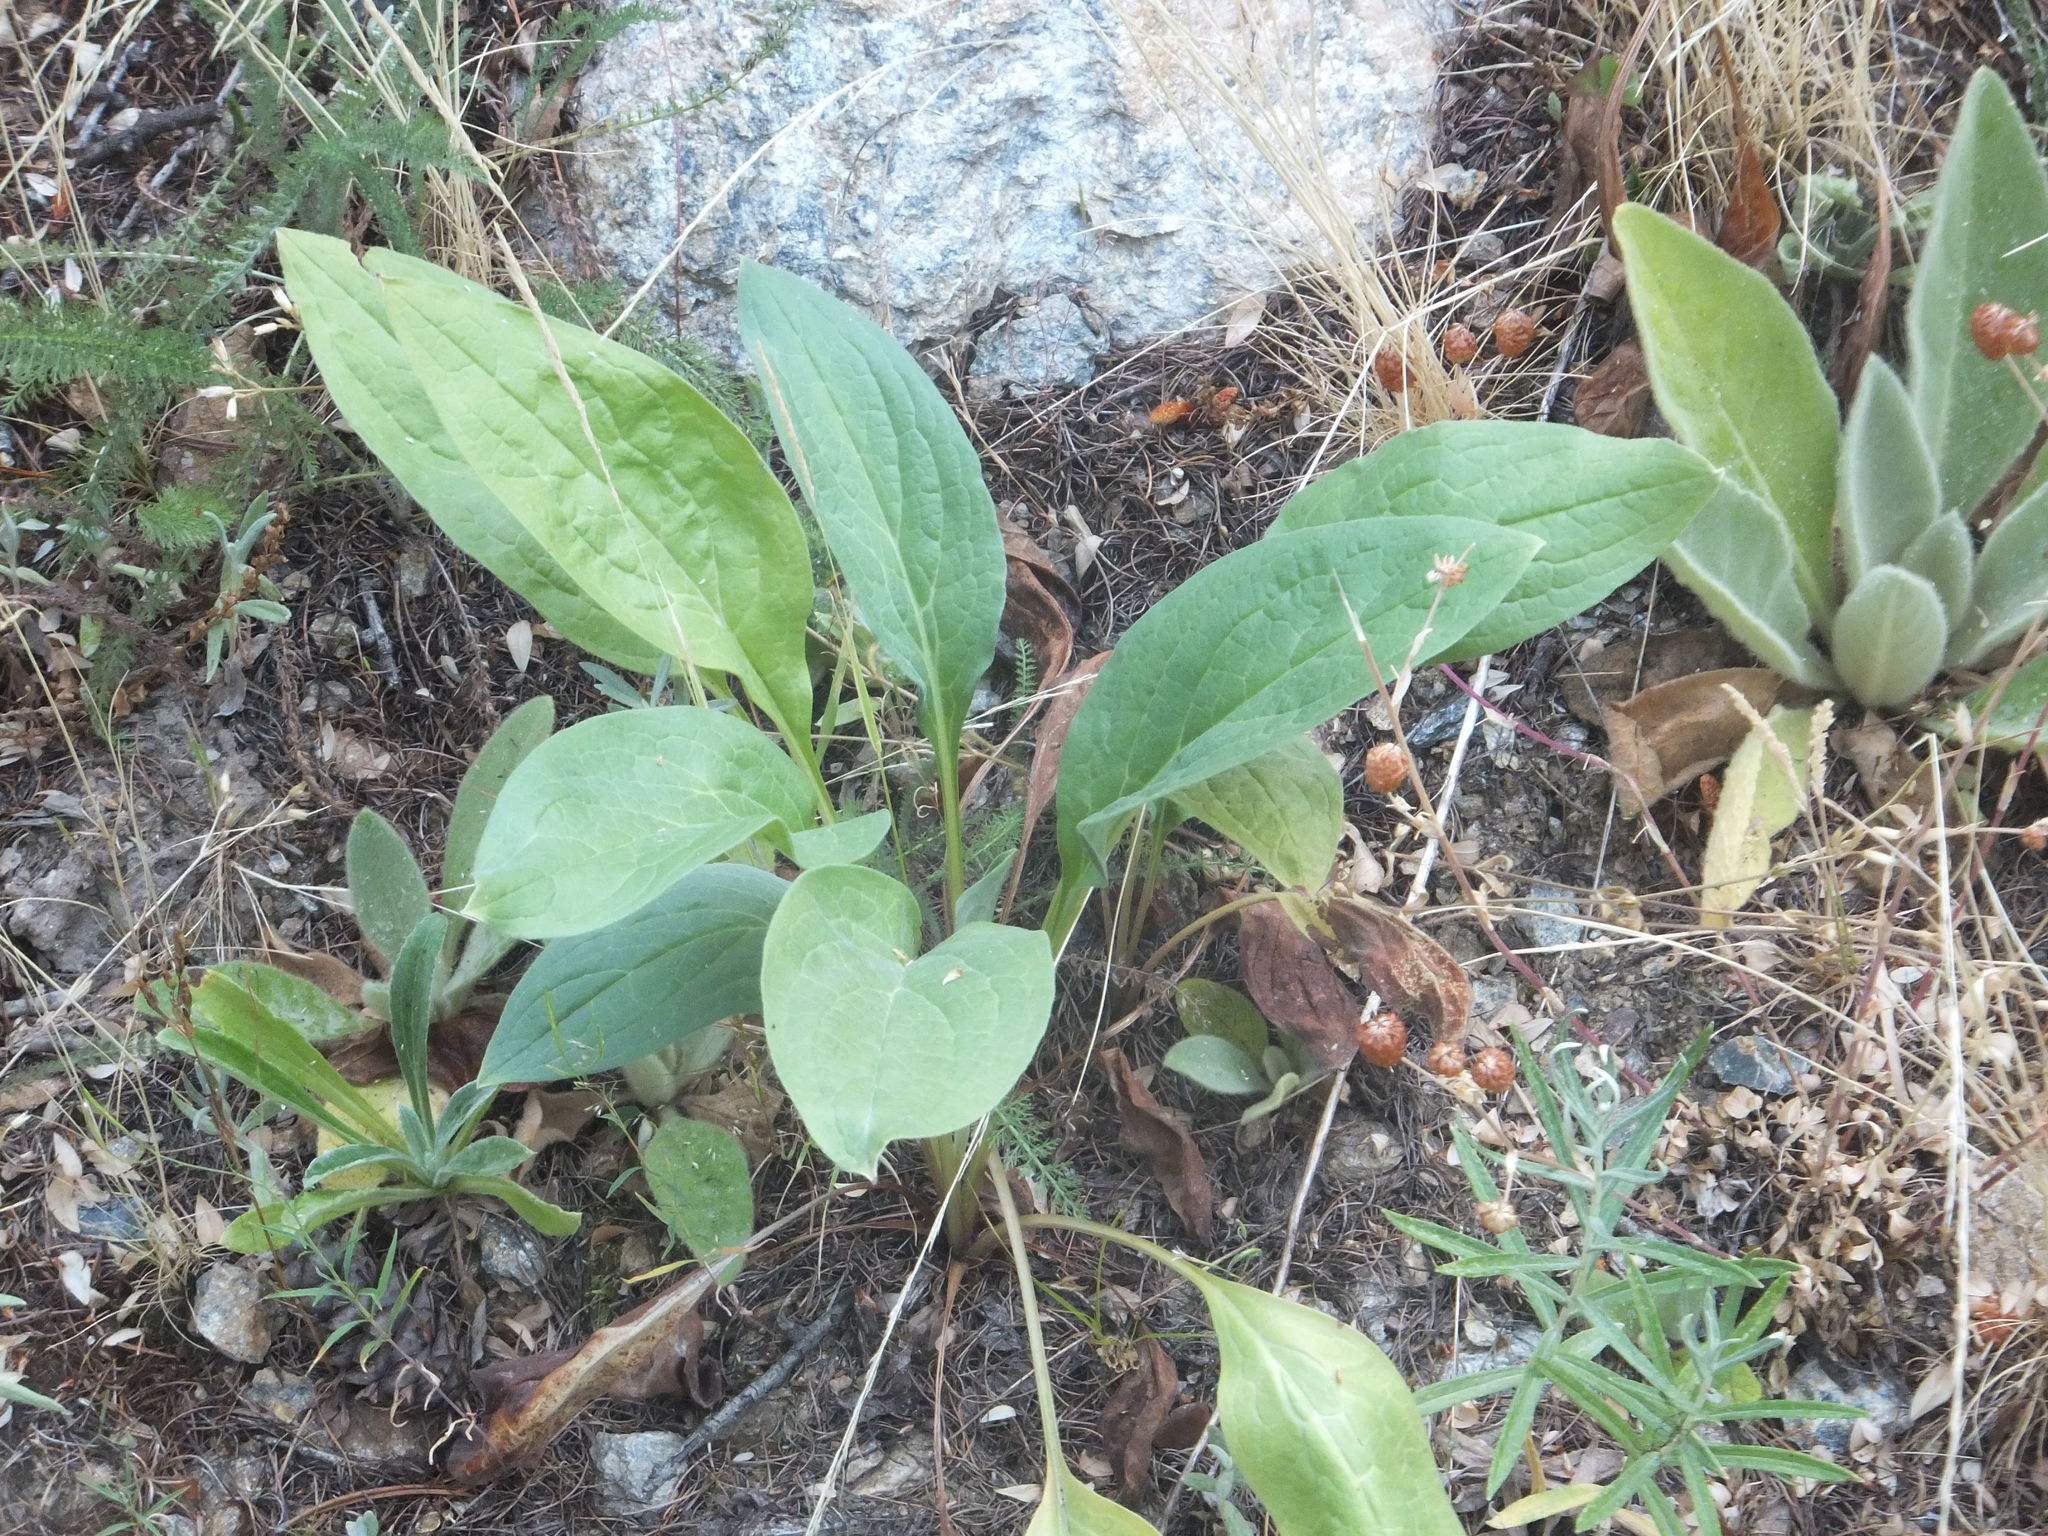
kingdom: Plantae
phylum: Tracheophyta
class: Magnoliopsida
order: Boraginales
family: Boraginaceae
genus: Cynoglossum
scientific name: Cynoglossum officinale
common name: Hound's-tongue
